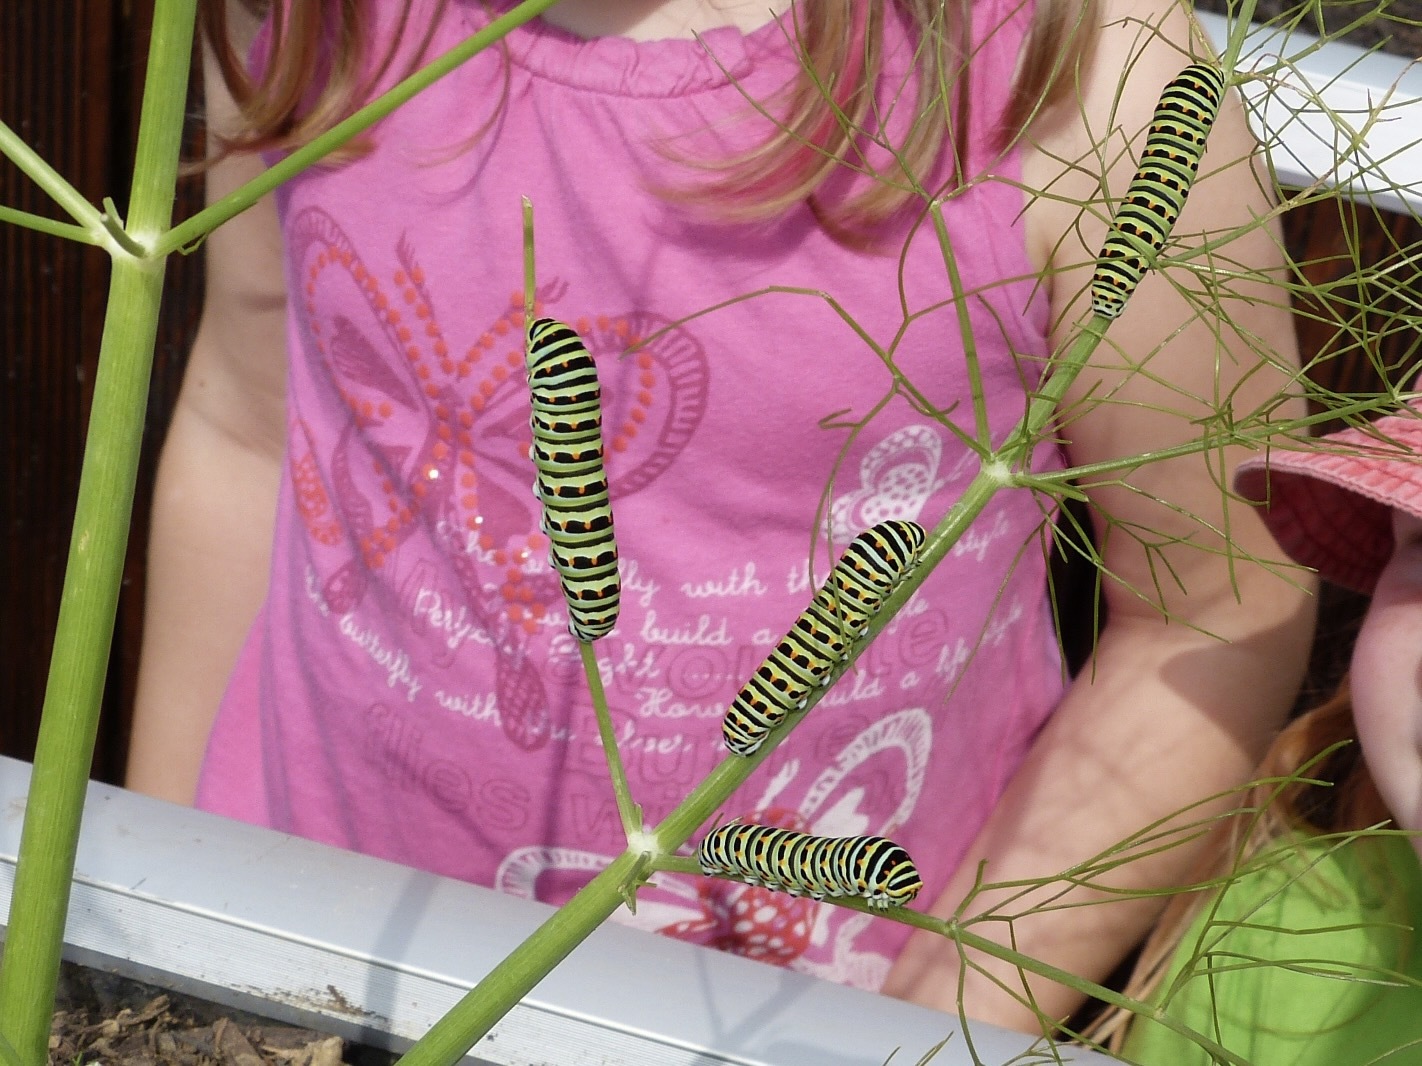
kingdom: Animalia
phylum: Arthropoda
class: Insecta
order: Lepidoptera
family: Papilionidae
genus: Papilio
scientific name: Papilio machaon
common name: Swallowtail
